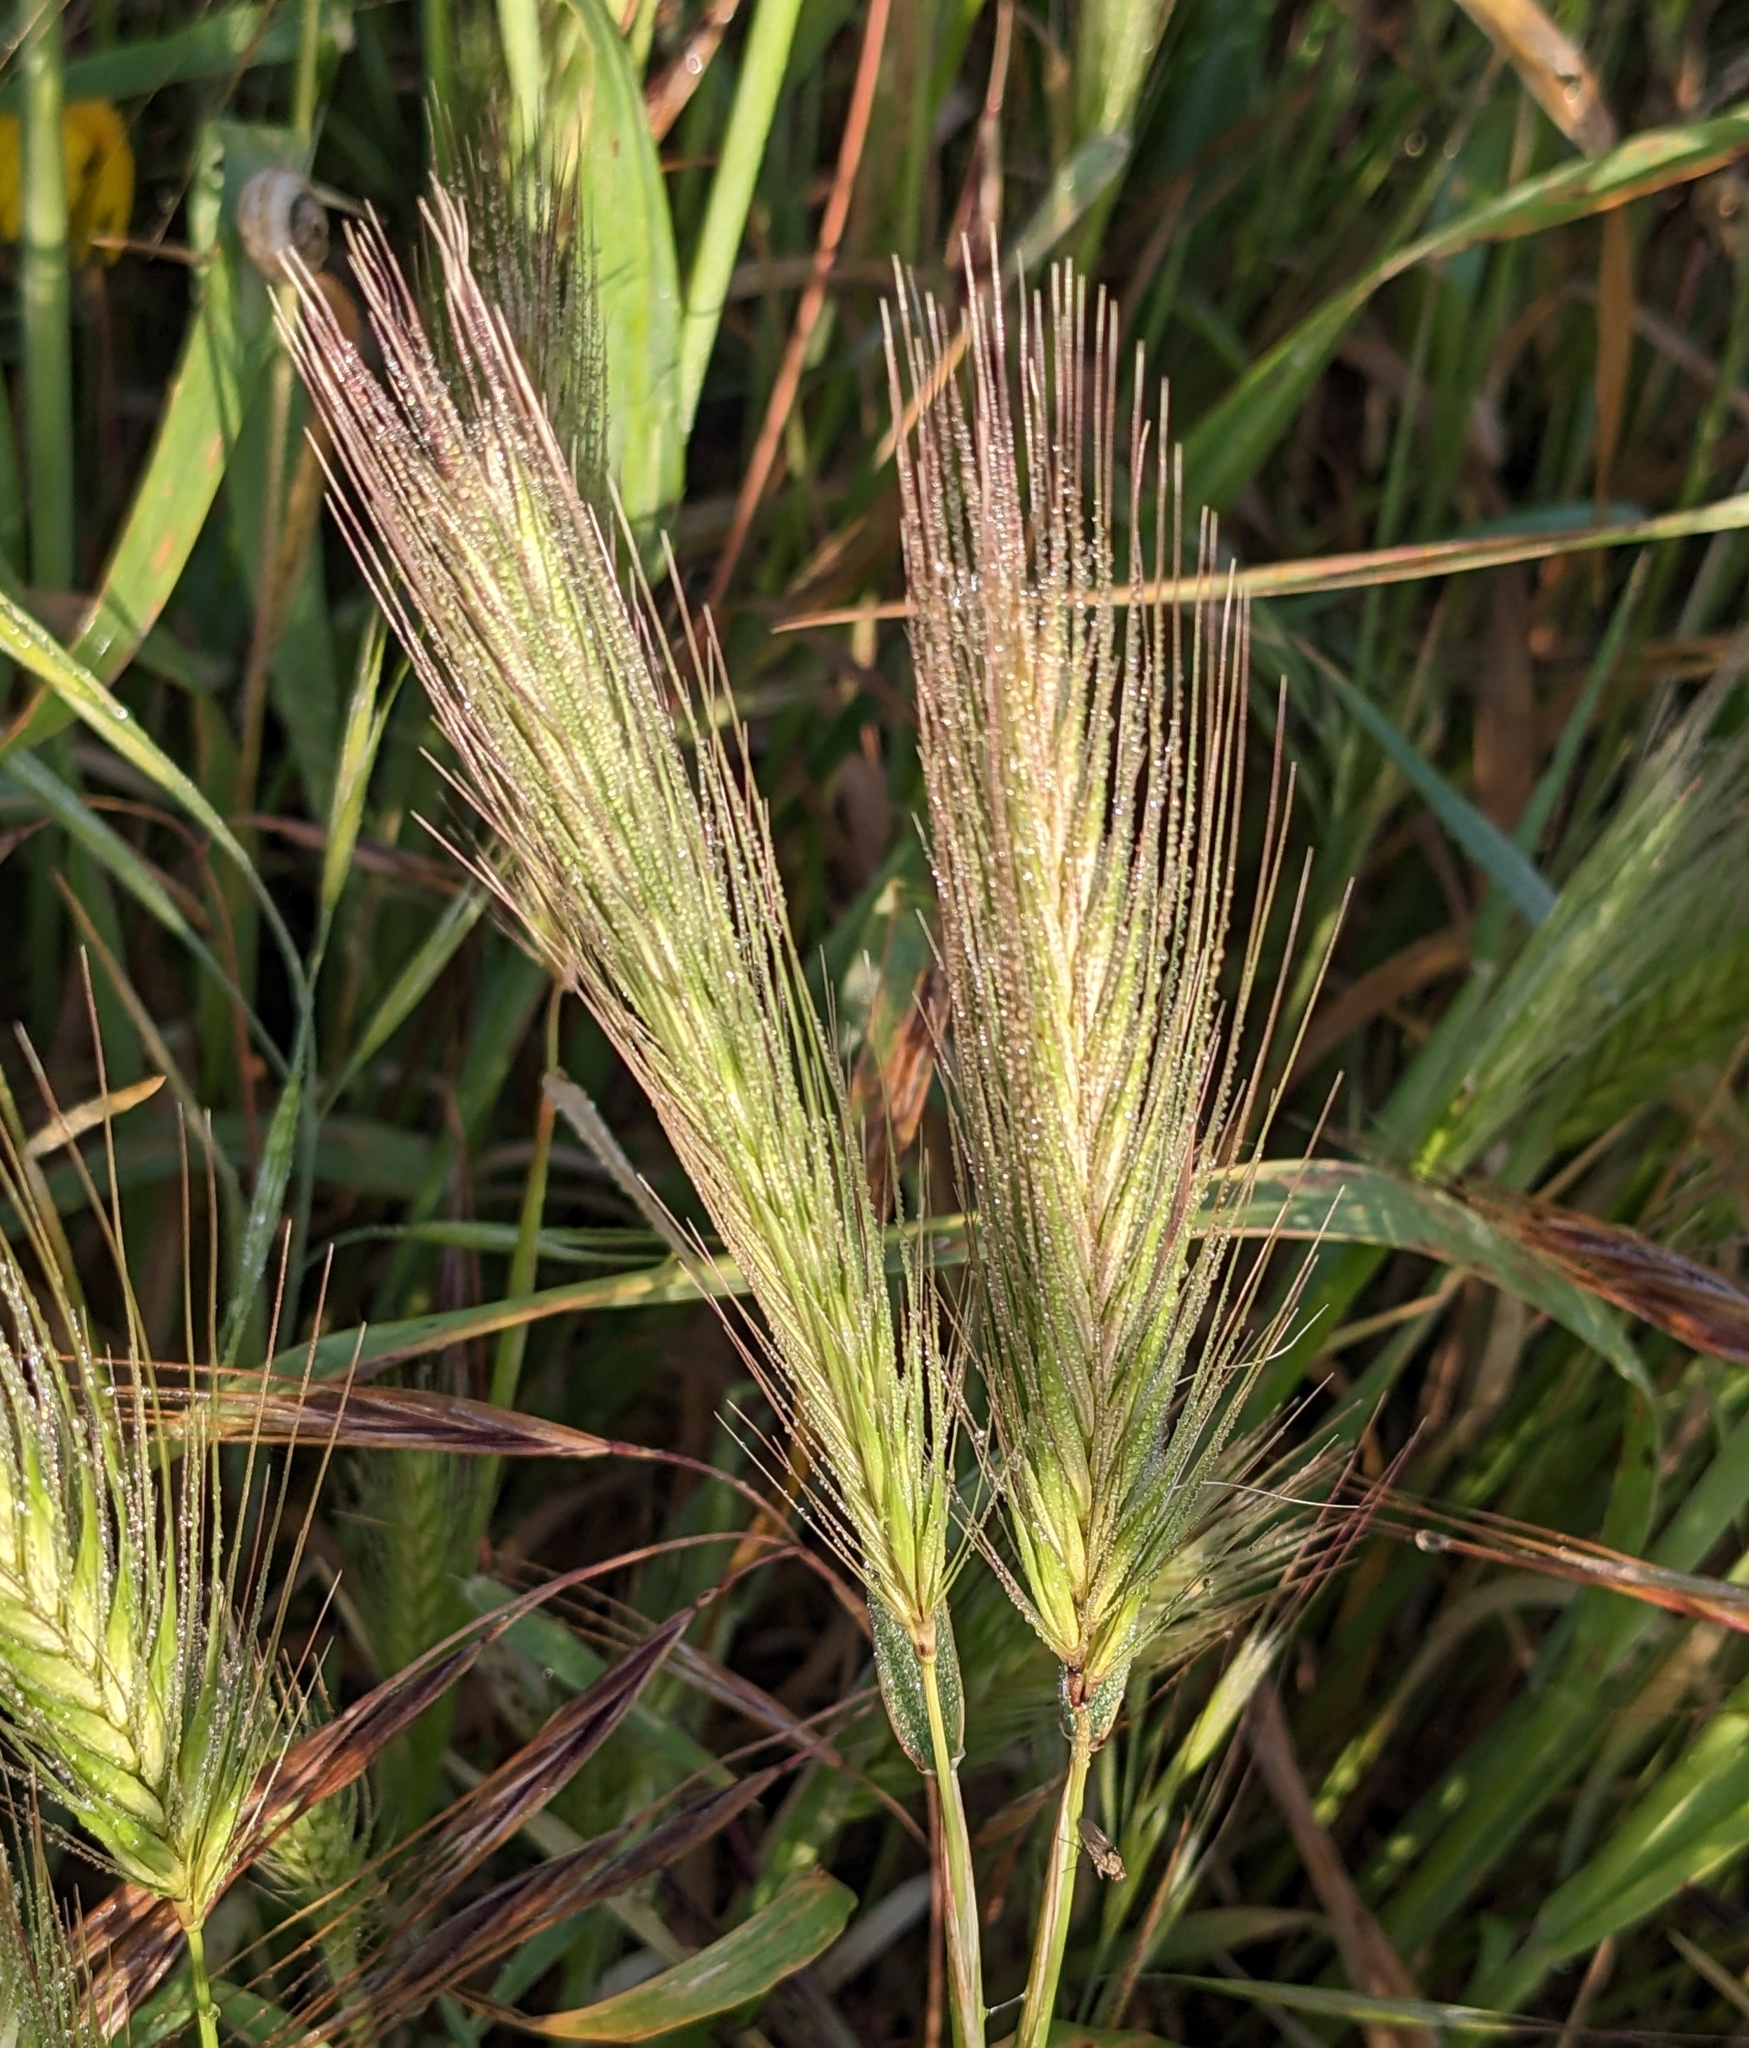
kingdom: Plantae
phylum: Tracheophyta
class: Liliopsida
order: Poales
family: Poaceae
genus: Hordeum
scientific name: Hordeum murinum
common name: Wall barley
